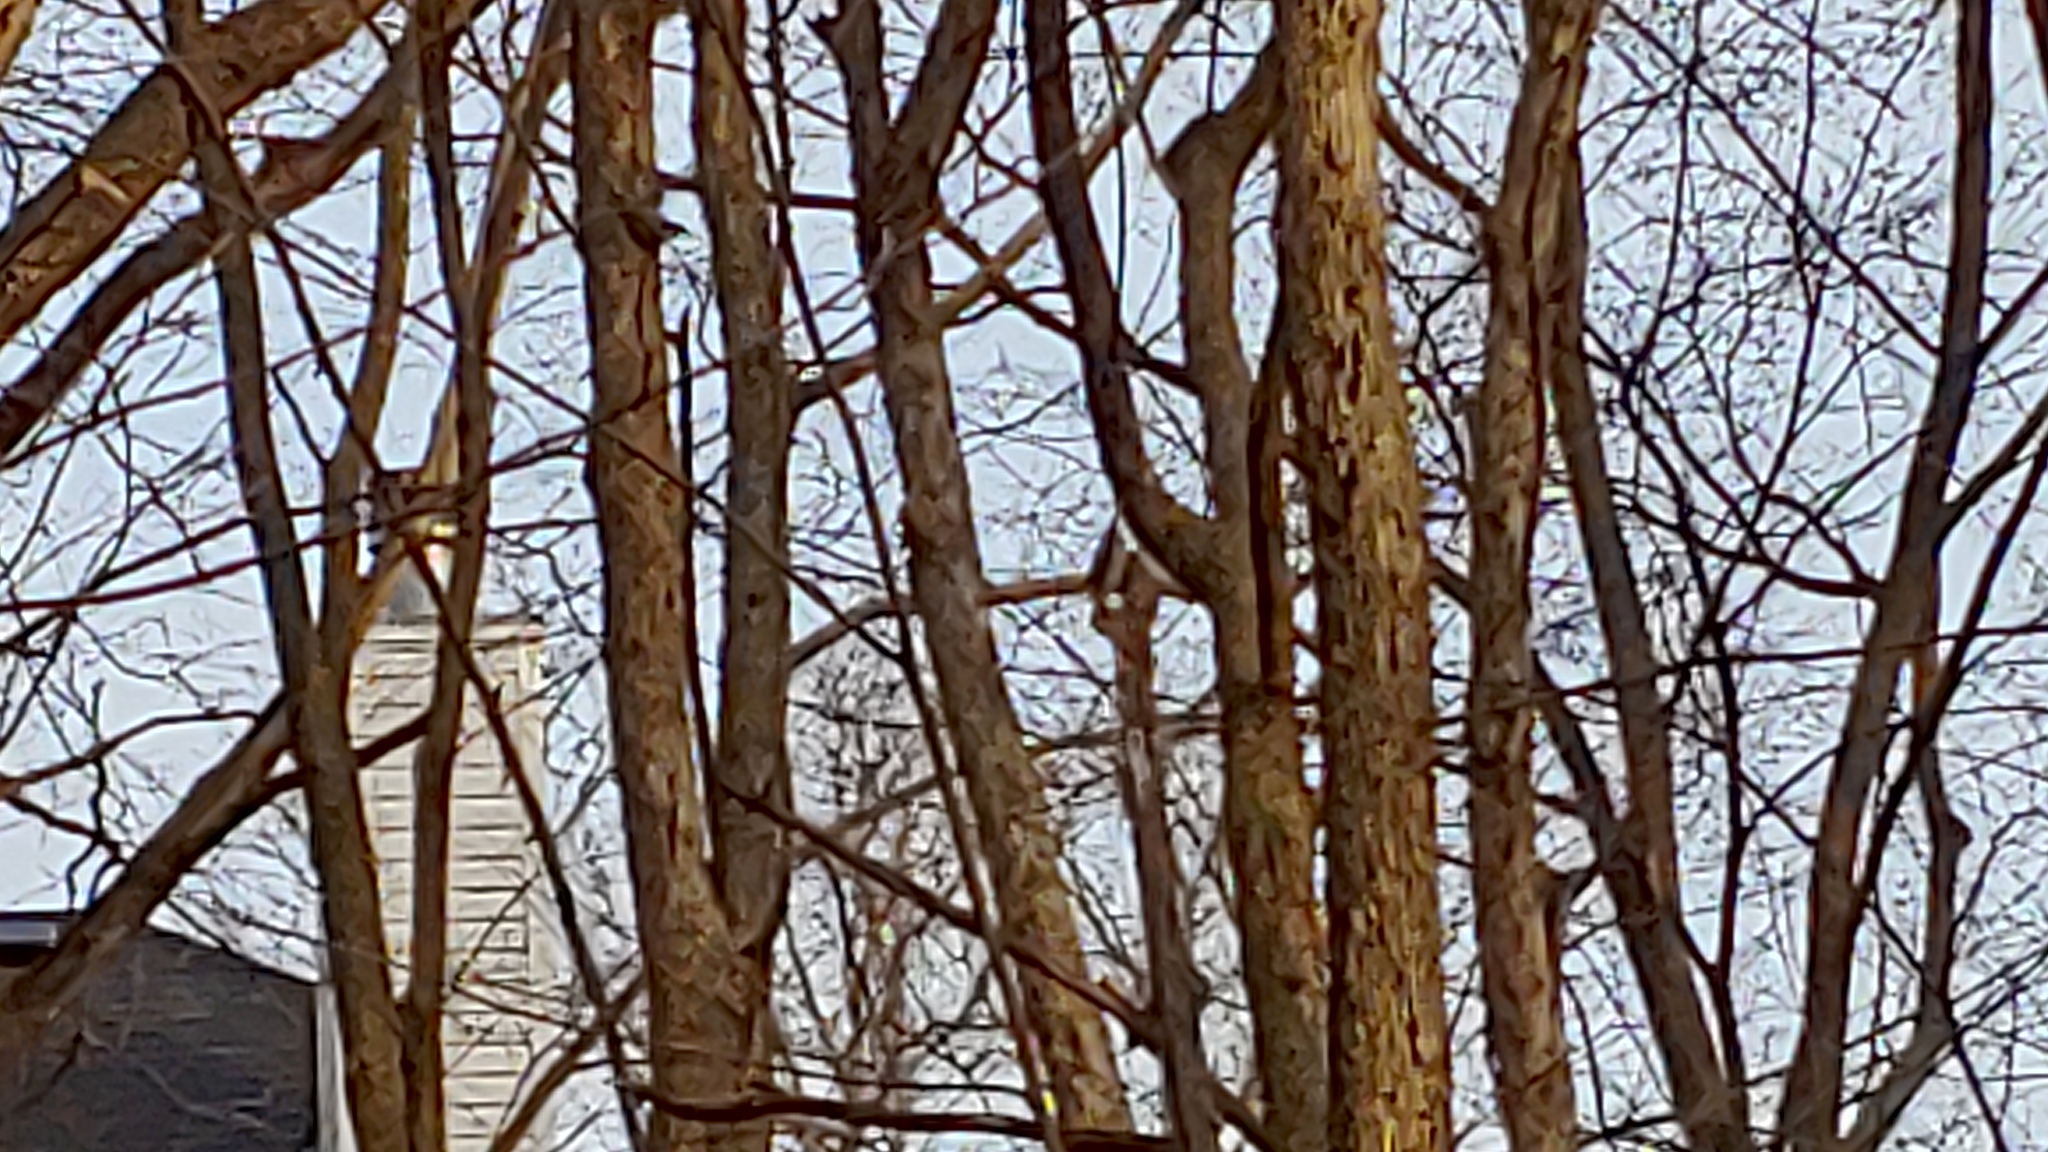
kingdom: Animalia
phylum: Chordata
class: Aves
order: Passeriformes
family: Sittidae
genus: Sitta
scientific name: Sitta carolinensis
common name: White-breasted nuthatch
